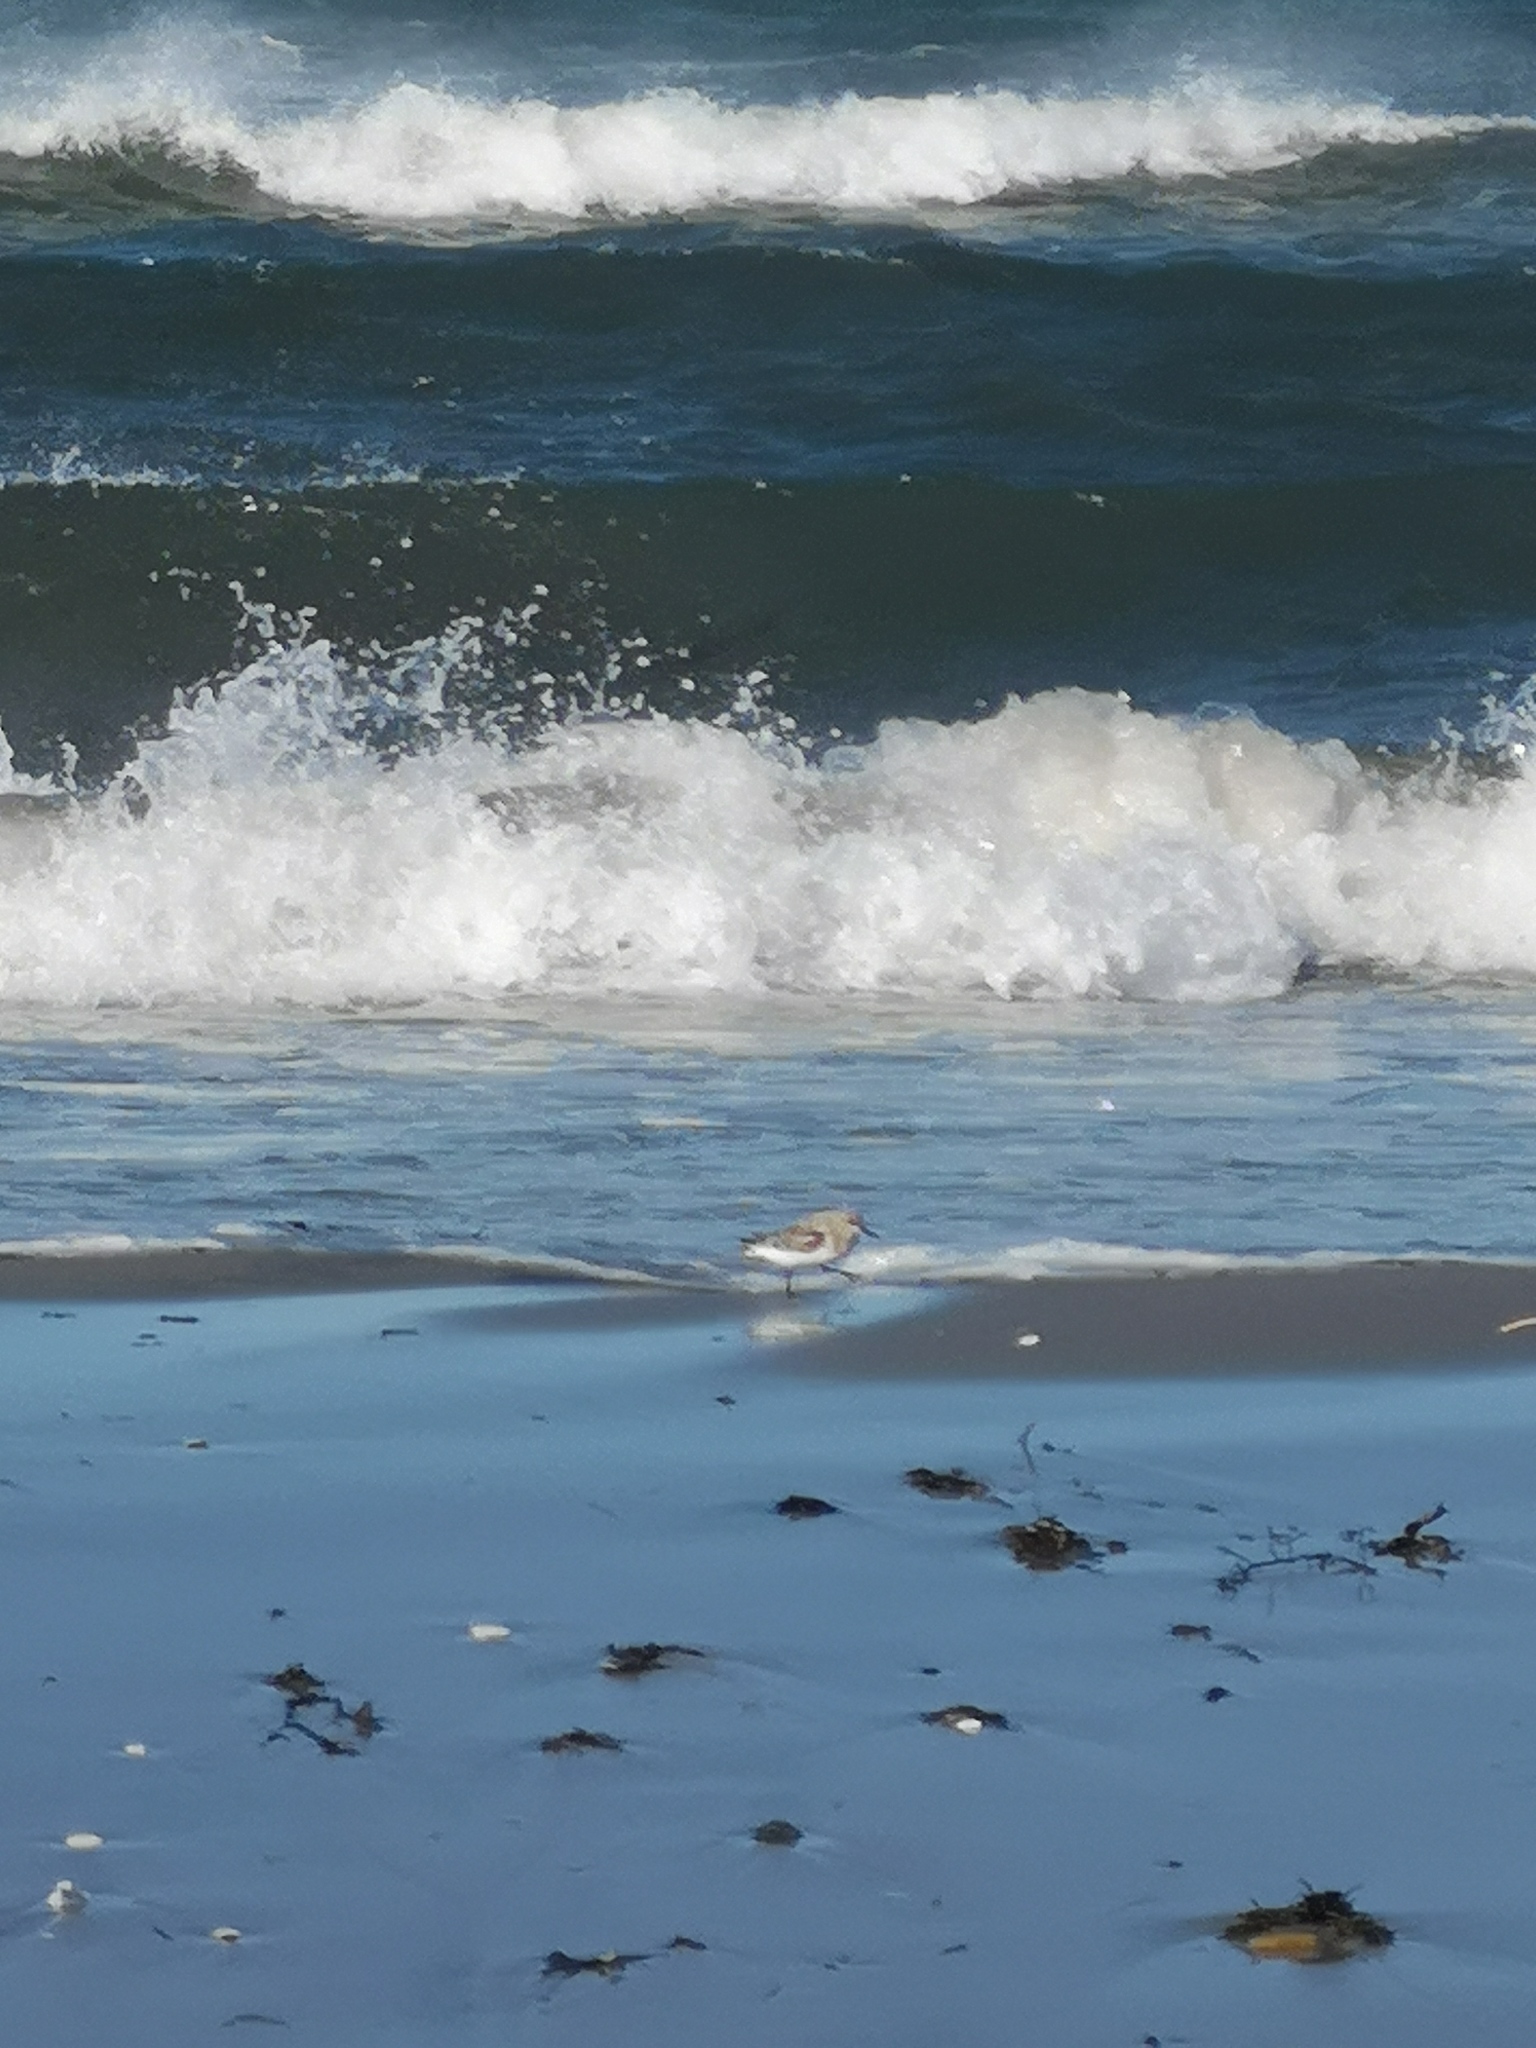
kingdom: Animalia
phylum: Chordata
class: Aves
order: Charadriiformes
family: Scolopacidae
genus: Calidris
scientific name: Calidris alba
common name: Sanderling
